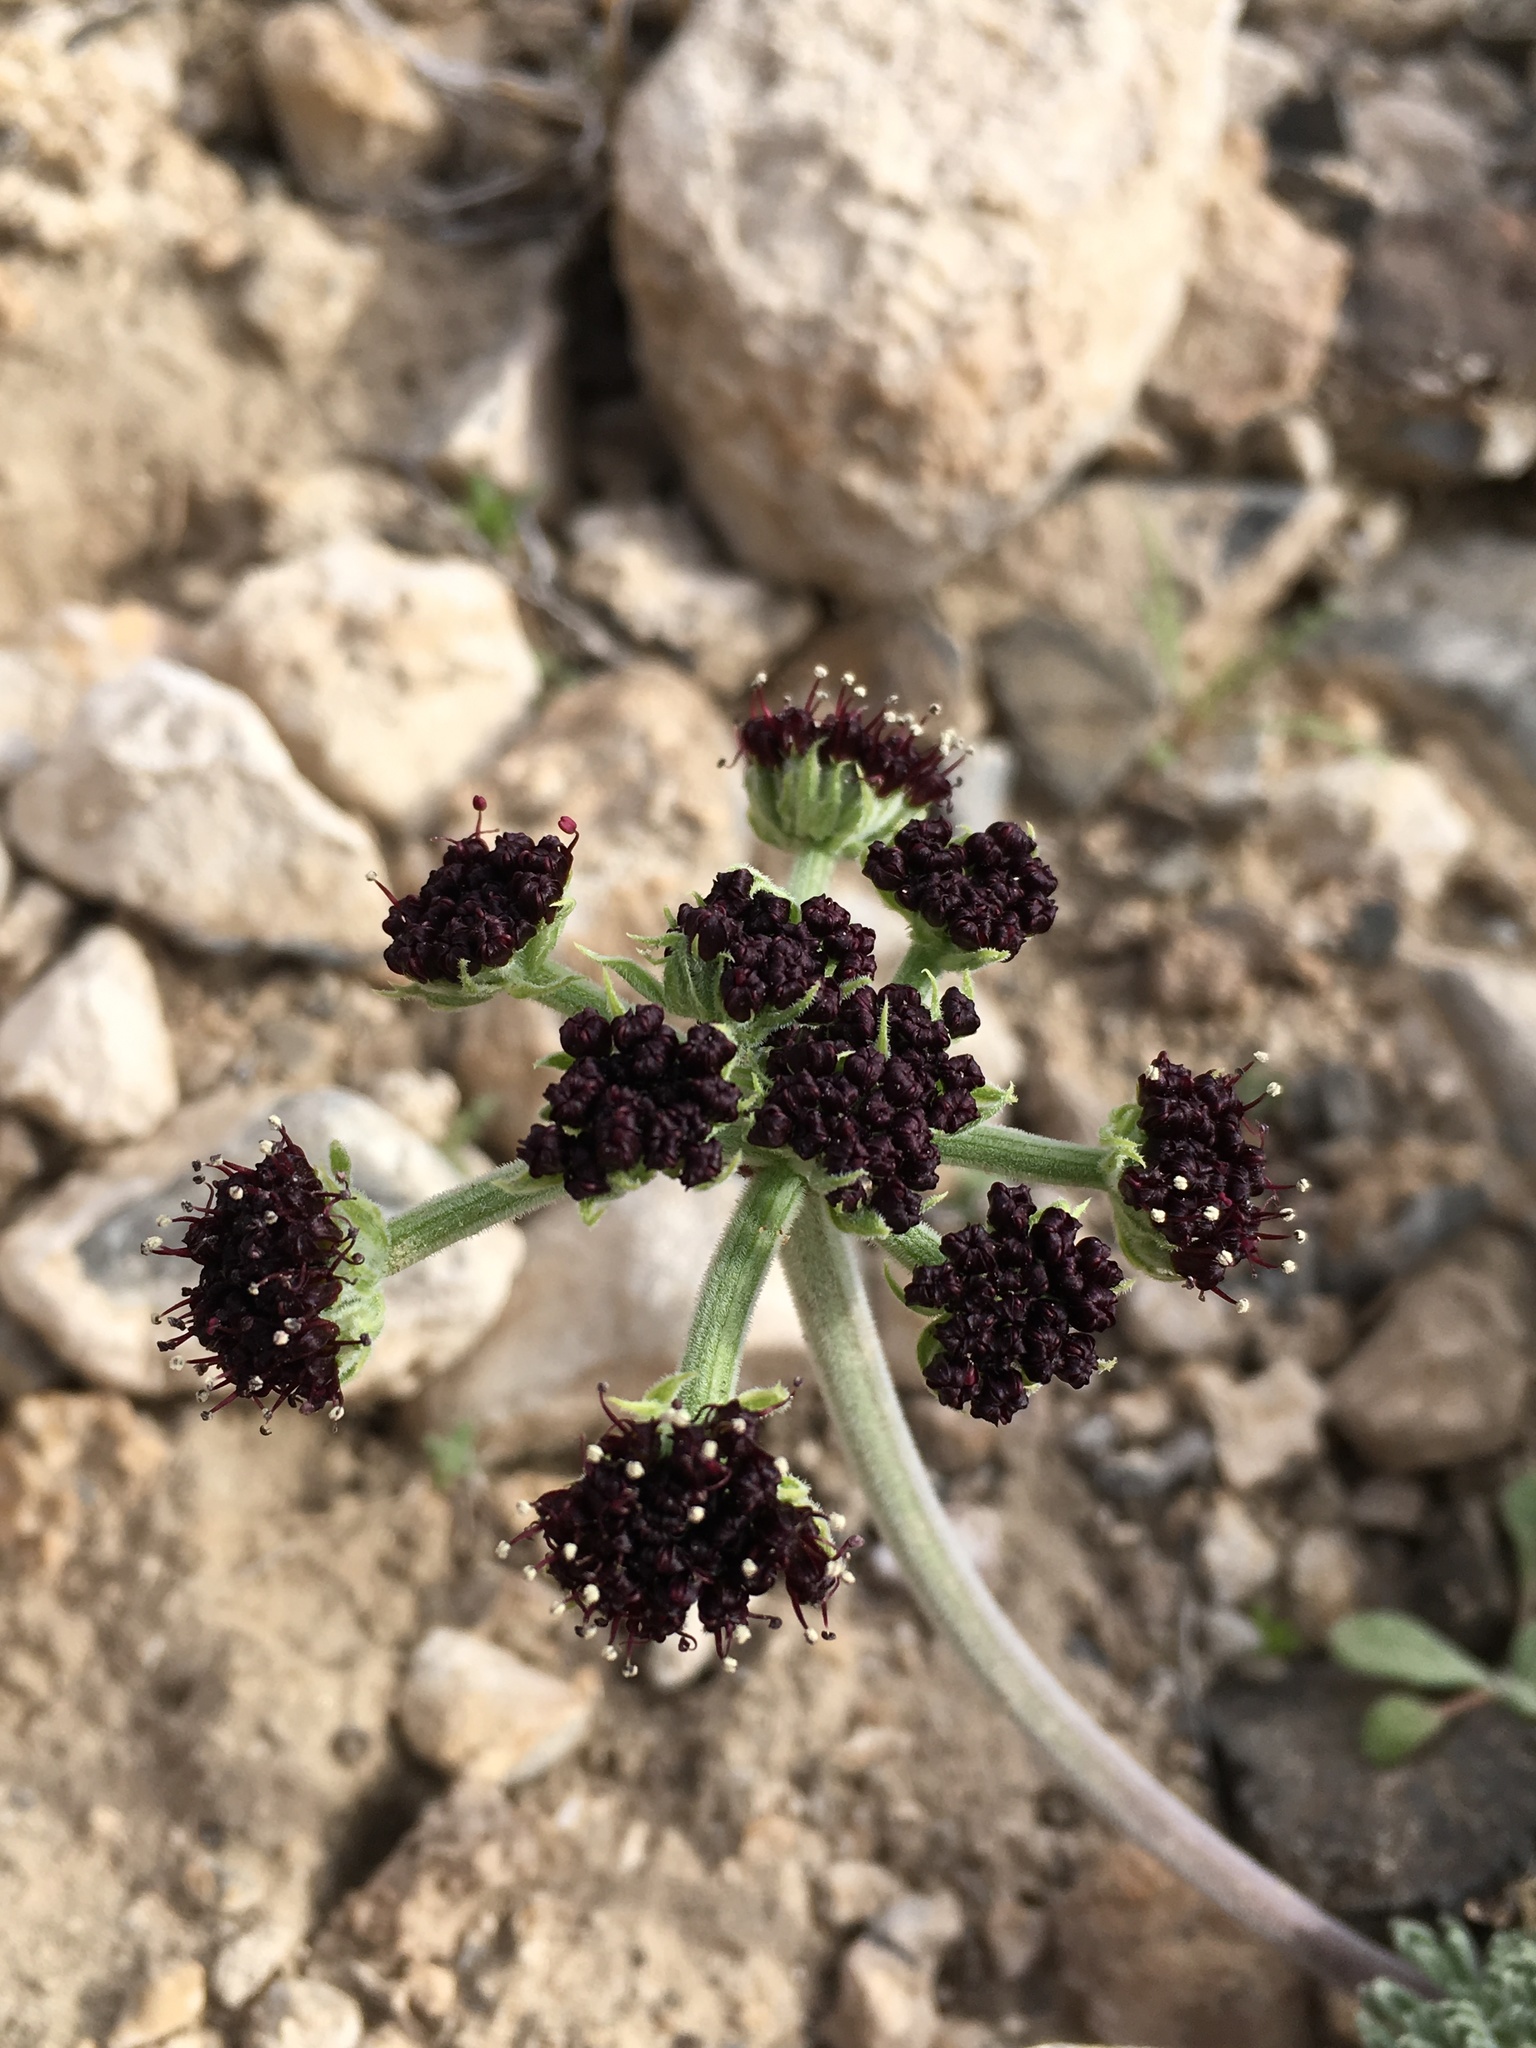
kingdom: Plantae
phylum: Tracheophyta
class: Magnoliopsida
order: Apiales
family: Apiaceae
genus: Lomatium
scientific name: Lomatium mohavense
